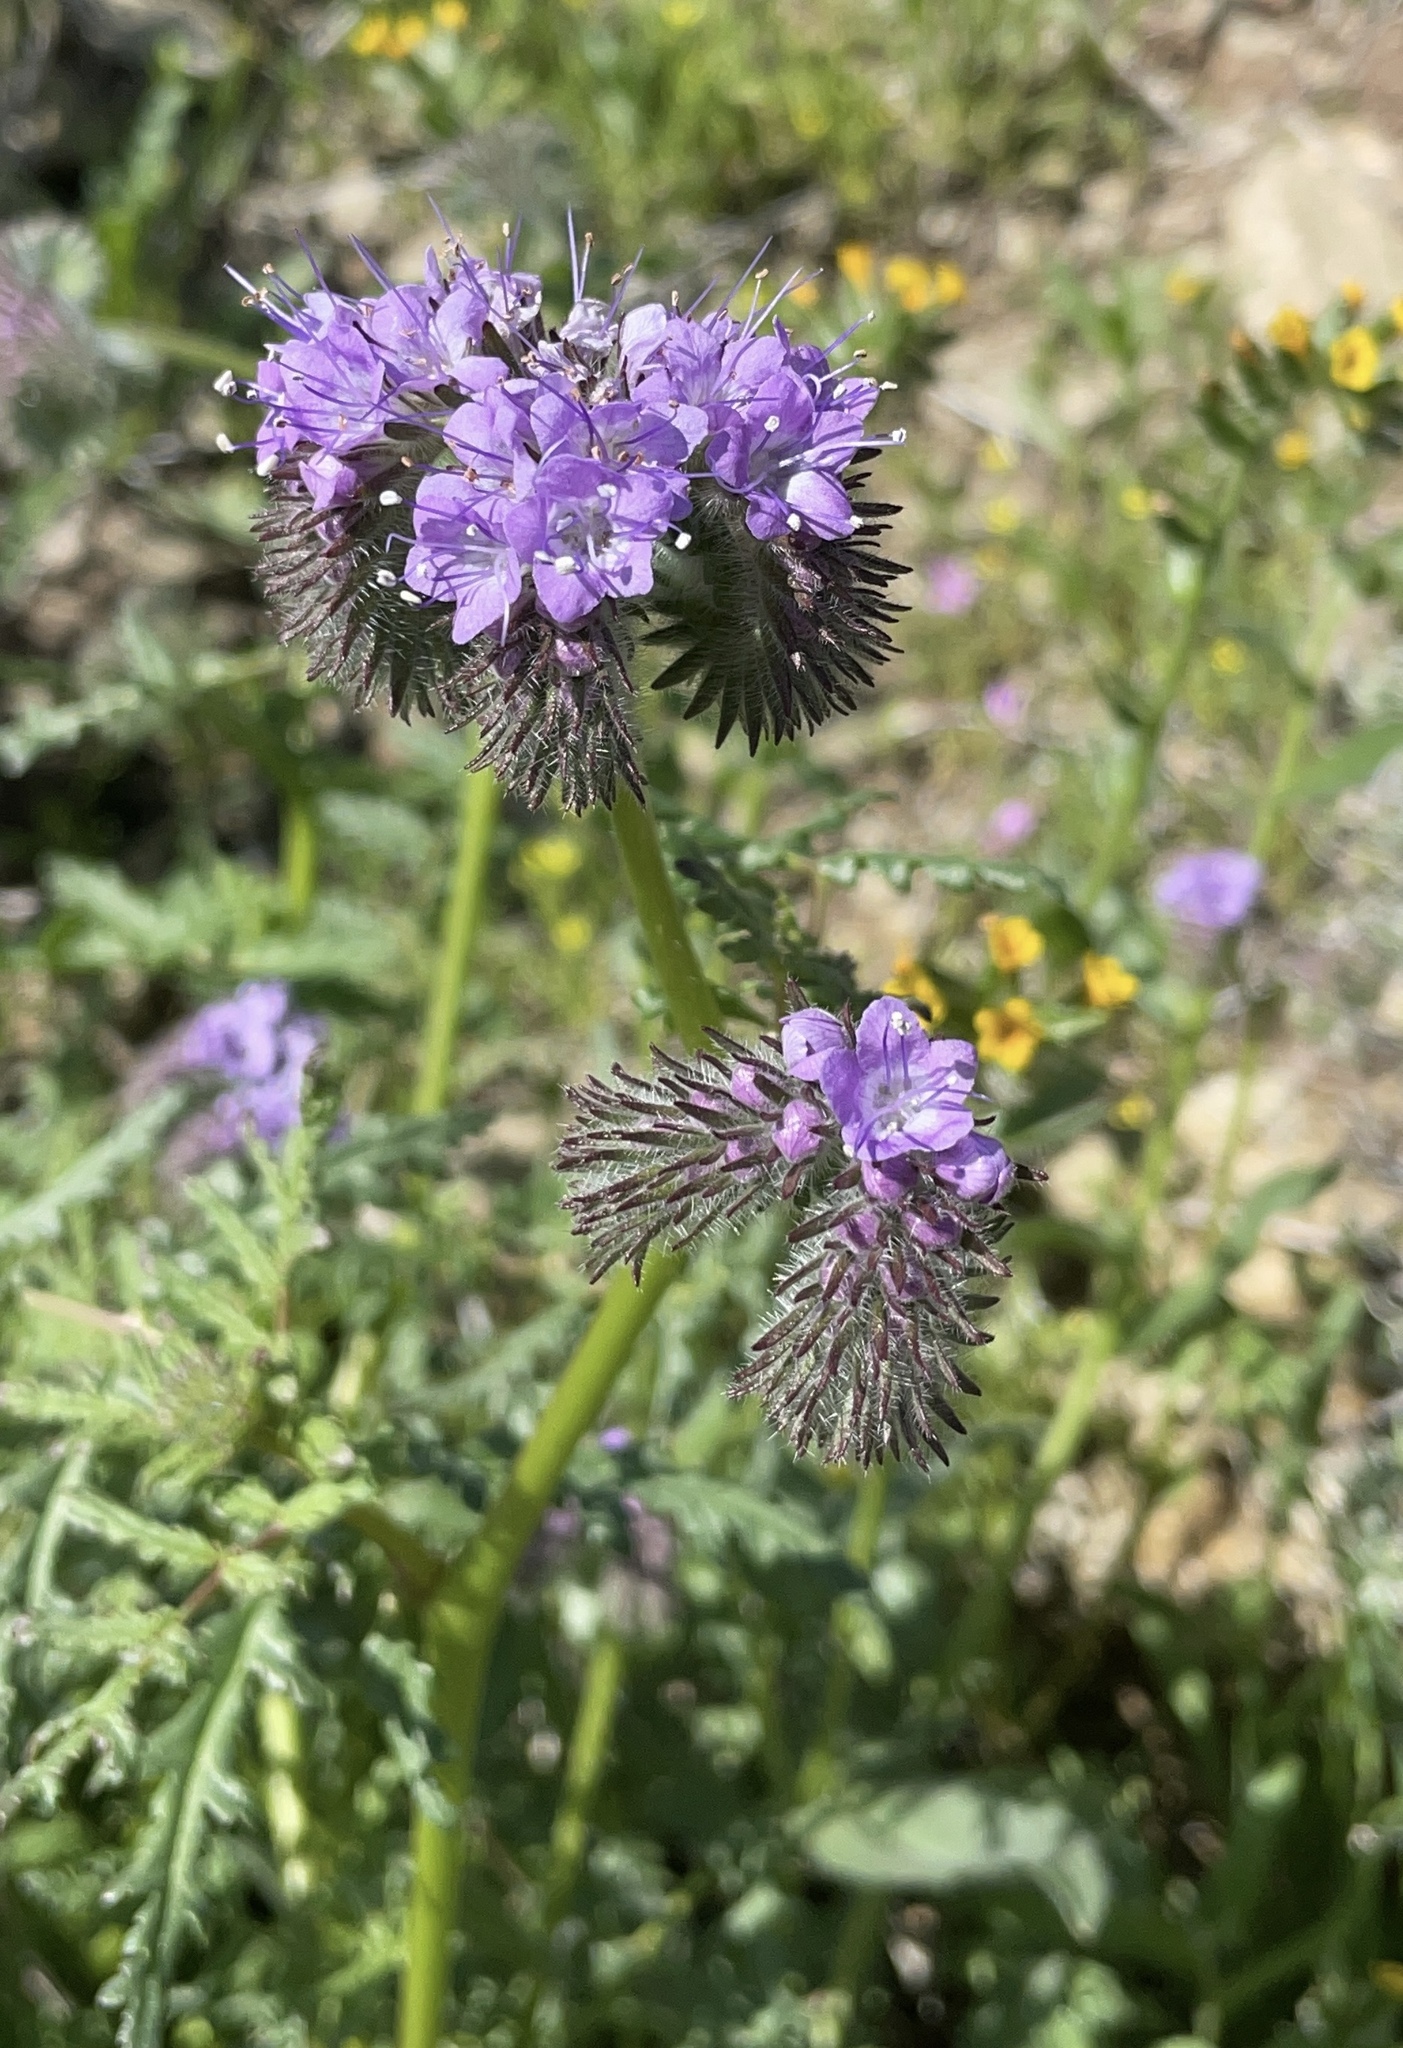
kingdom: Plantae
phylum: Tracheophyta
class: Magnoliopsida
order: Boraginales
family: Hydrophyllaceae
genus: Phacelia
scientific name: Phacelia tanacetifolia
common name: Phacelia
